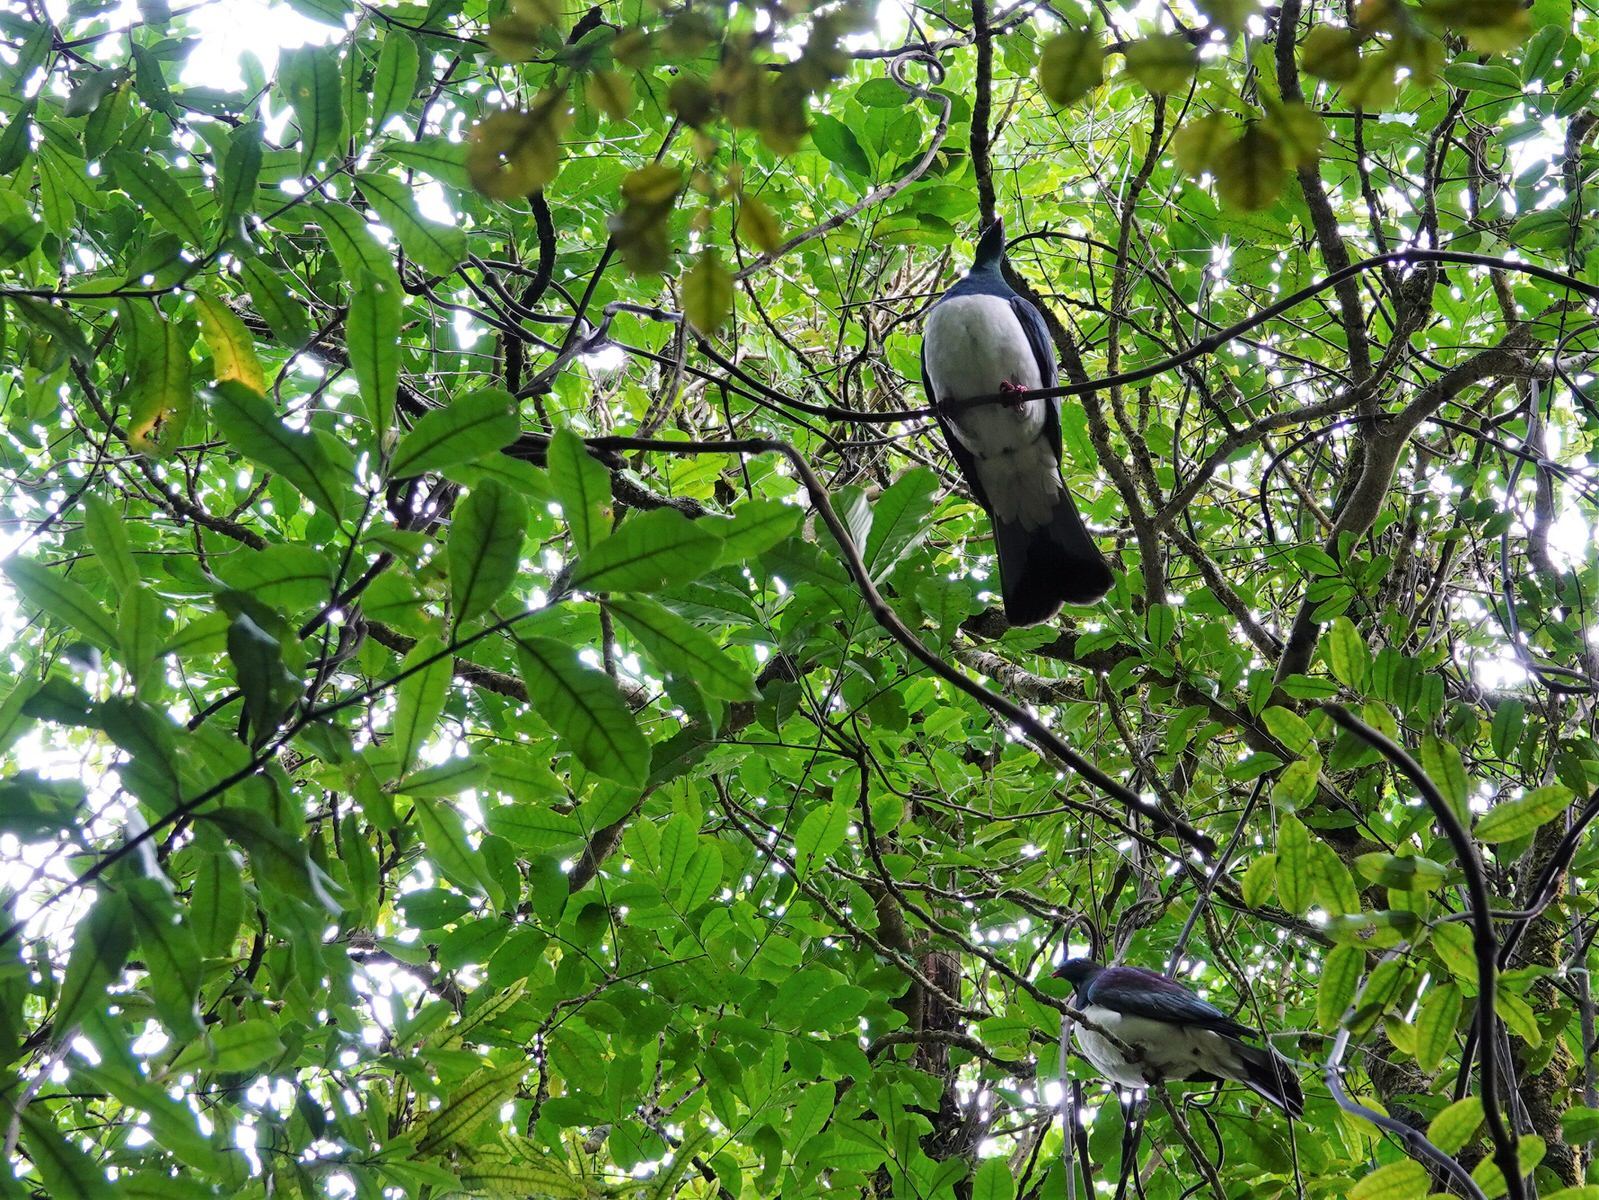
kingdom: Animalia
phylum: Chordata
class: Aves
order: Columbiformes
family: Columbidae
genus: Hemiphaga
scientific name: Hemiphaga novaeseelandiae
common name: New zealand pigeon
